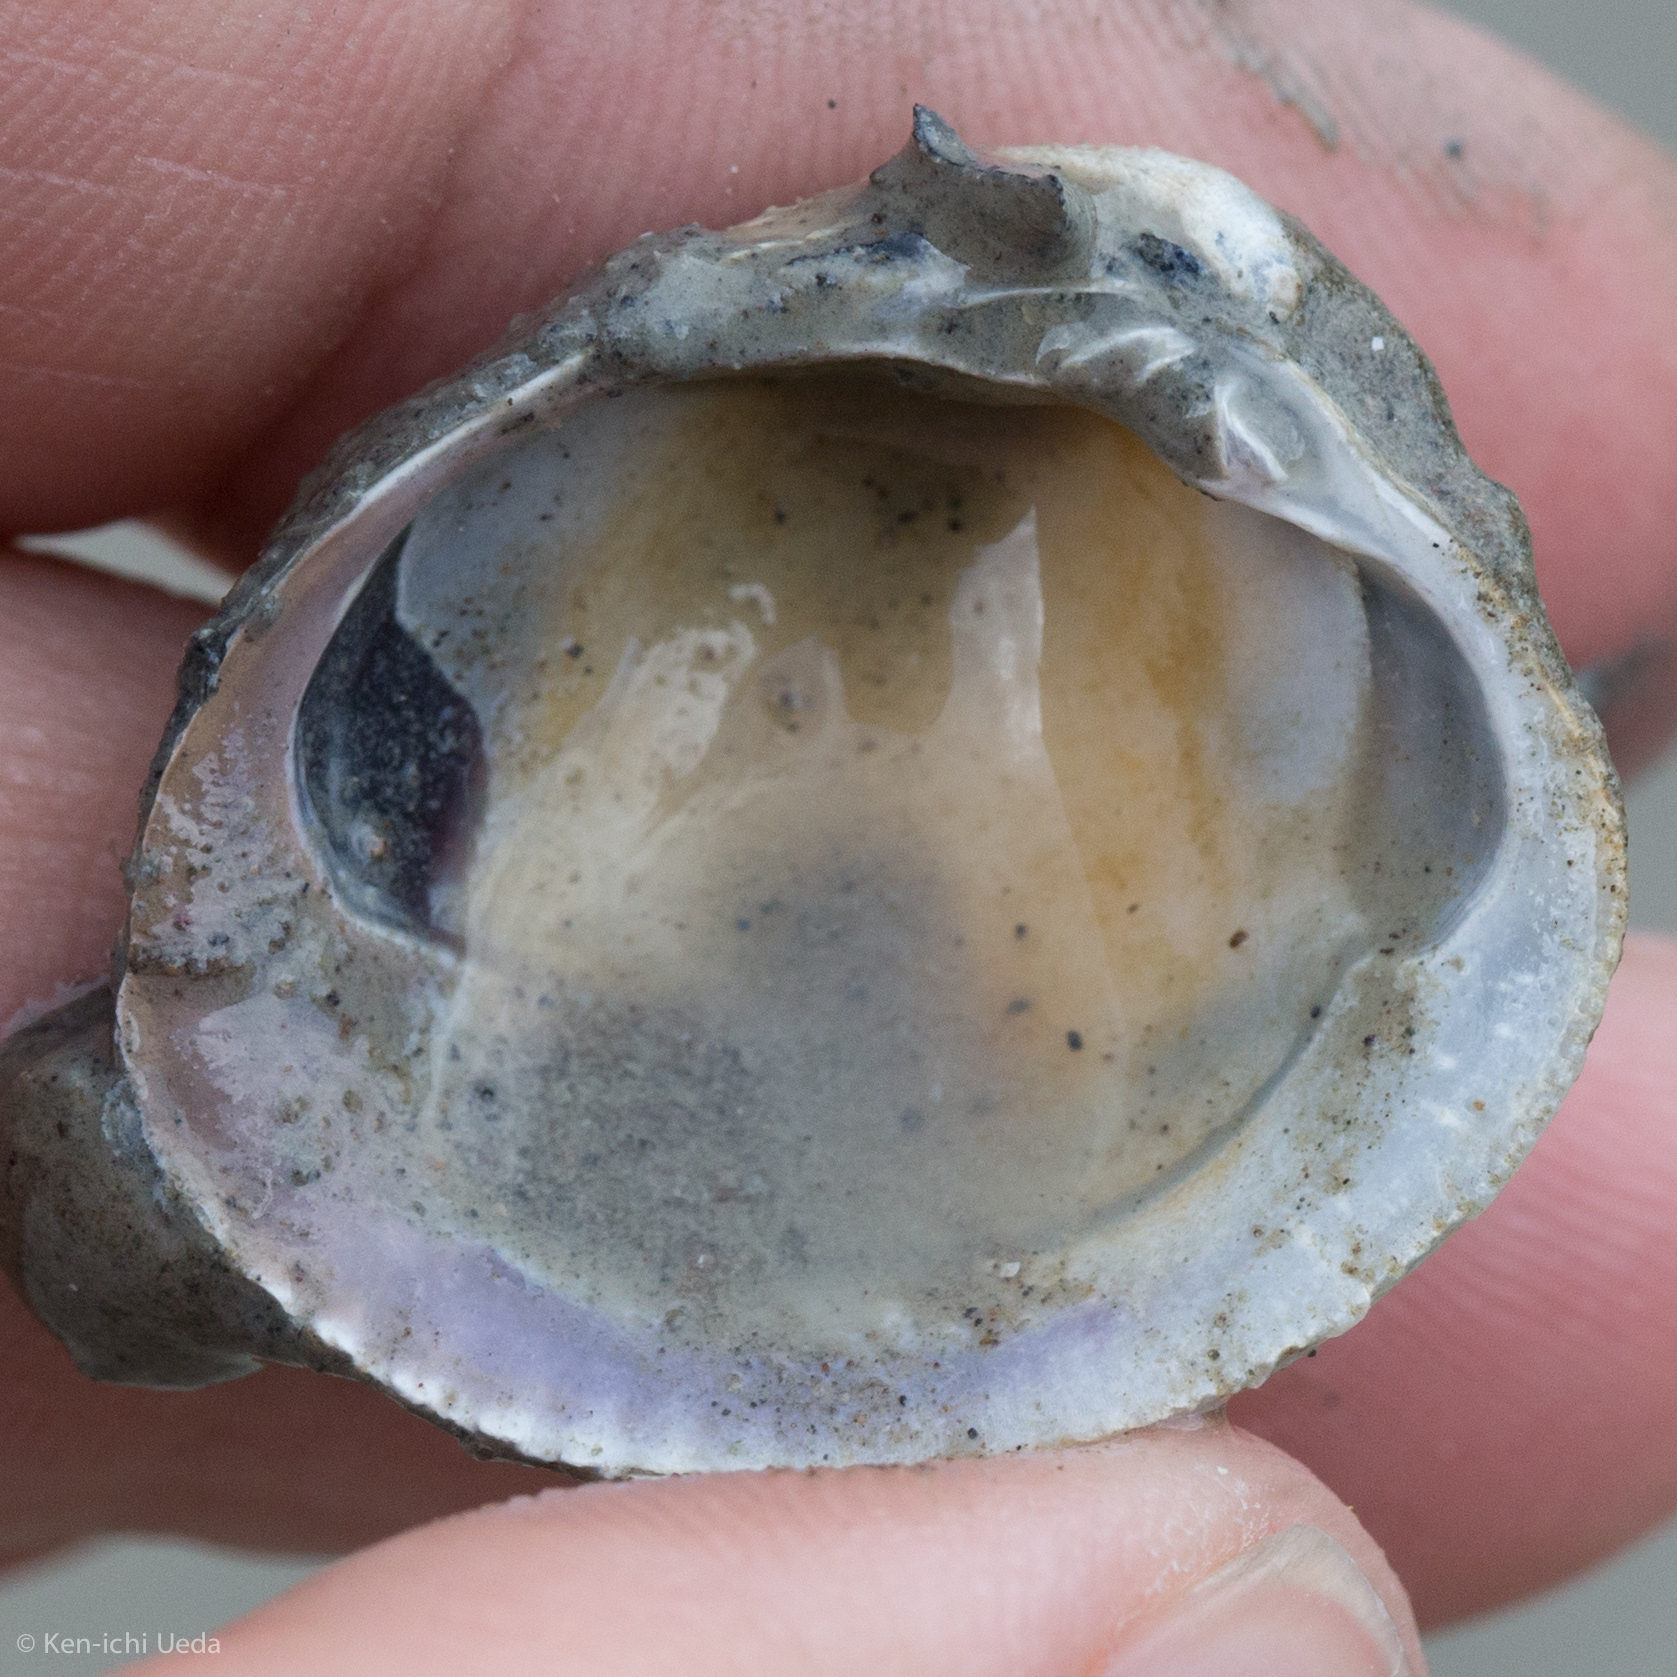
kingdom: Animalia
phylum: Mollusca
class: Bivalvia
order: Venerida
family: Veneridae
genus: Austrovenus
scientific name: Austrovenus stutchburyi
